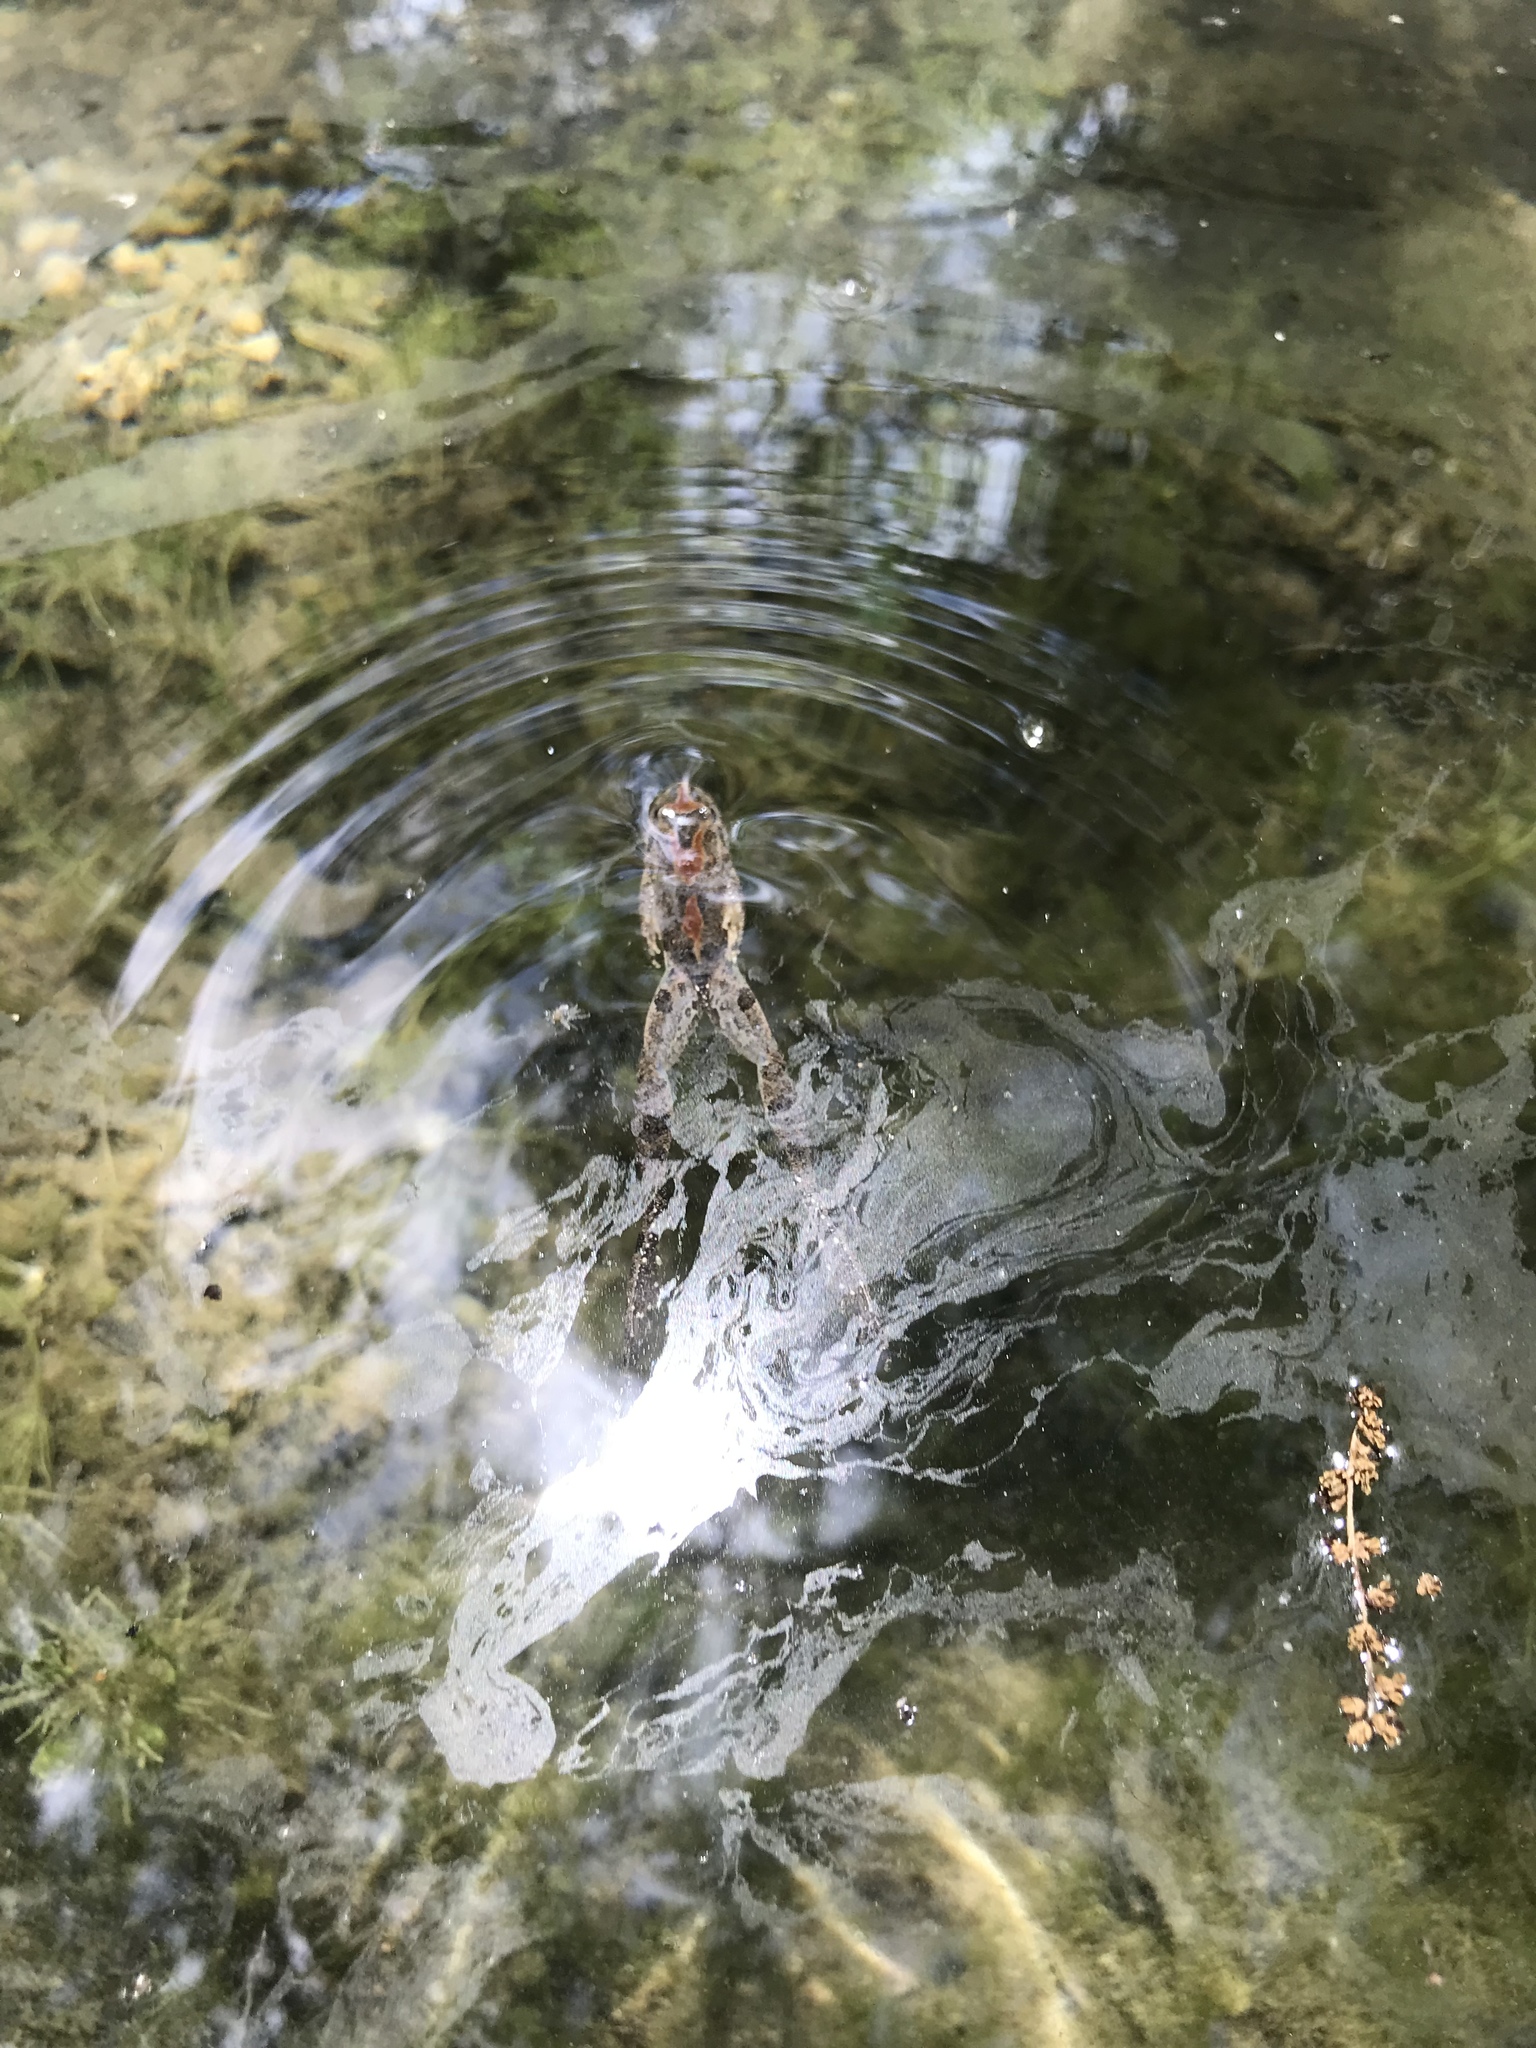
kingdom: Animalia
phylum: Chordata
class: Amphibia
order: Anura
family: Hylidae
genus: Acris
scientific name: Acris blanchardi
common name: Blanchard's cricket frog
